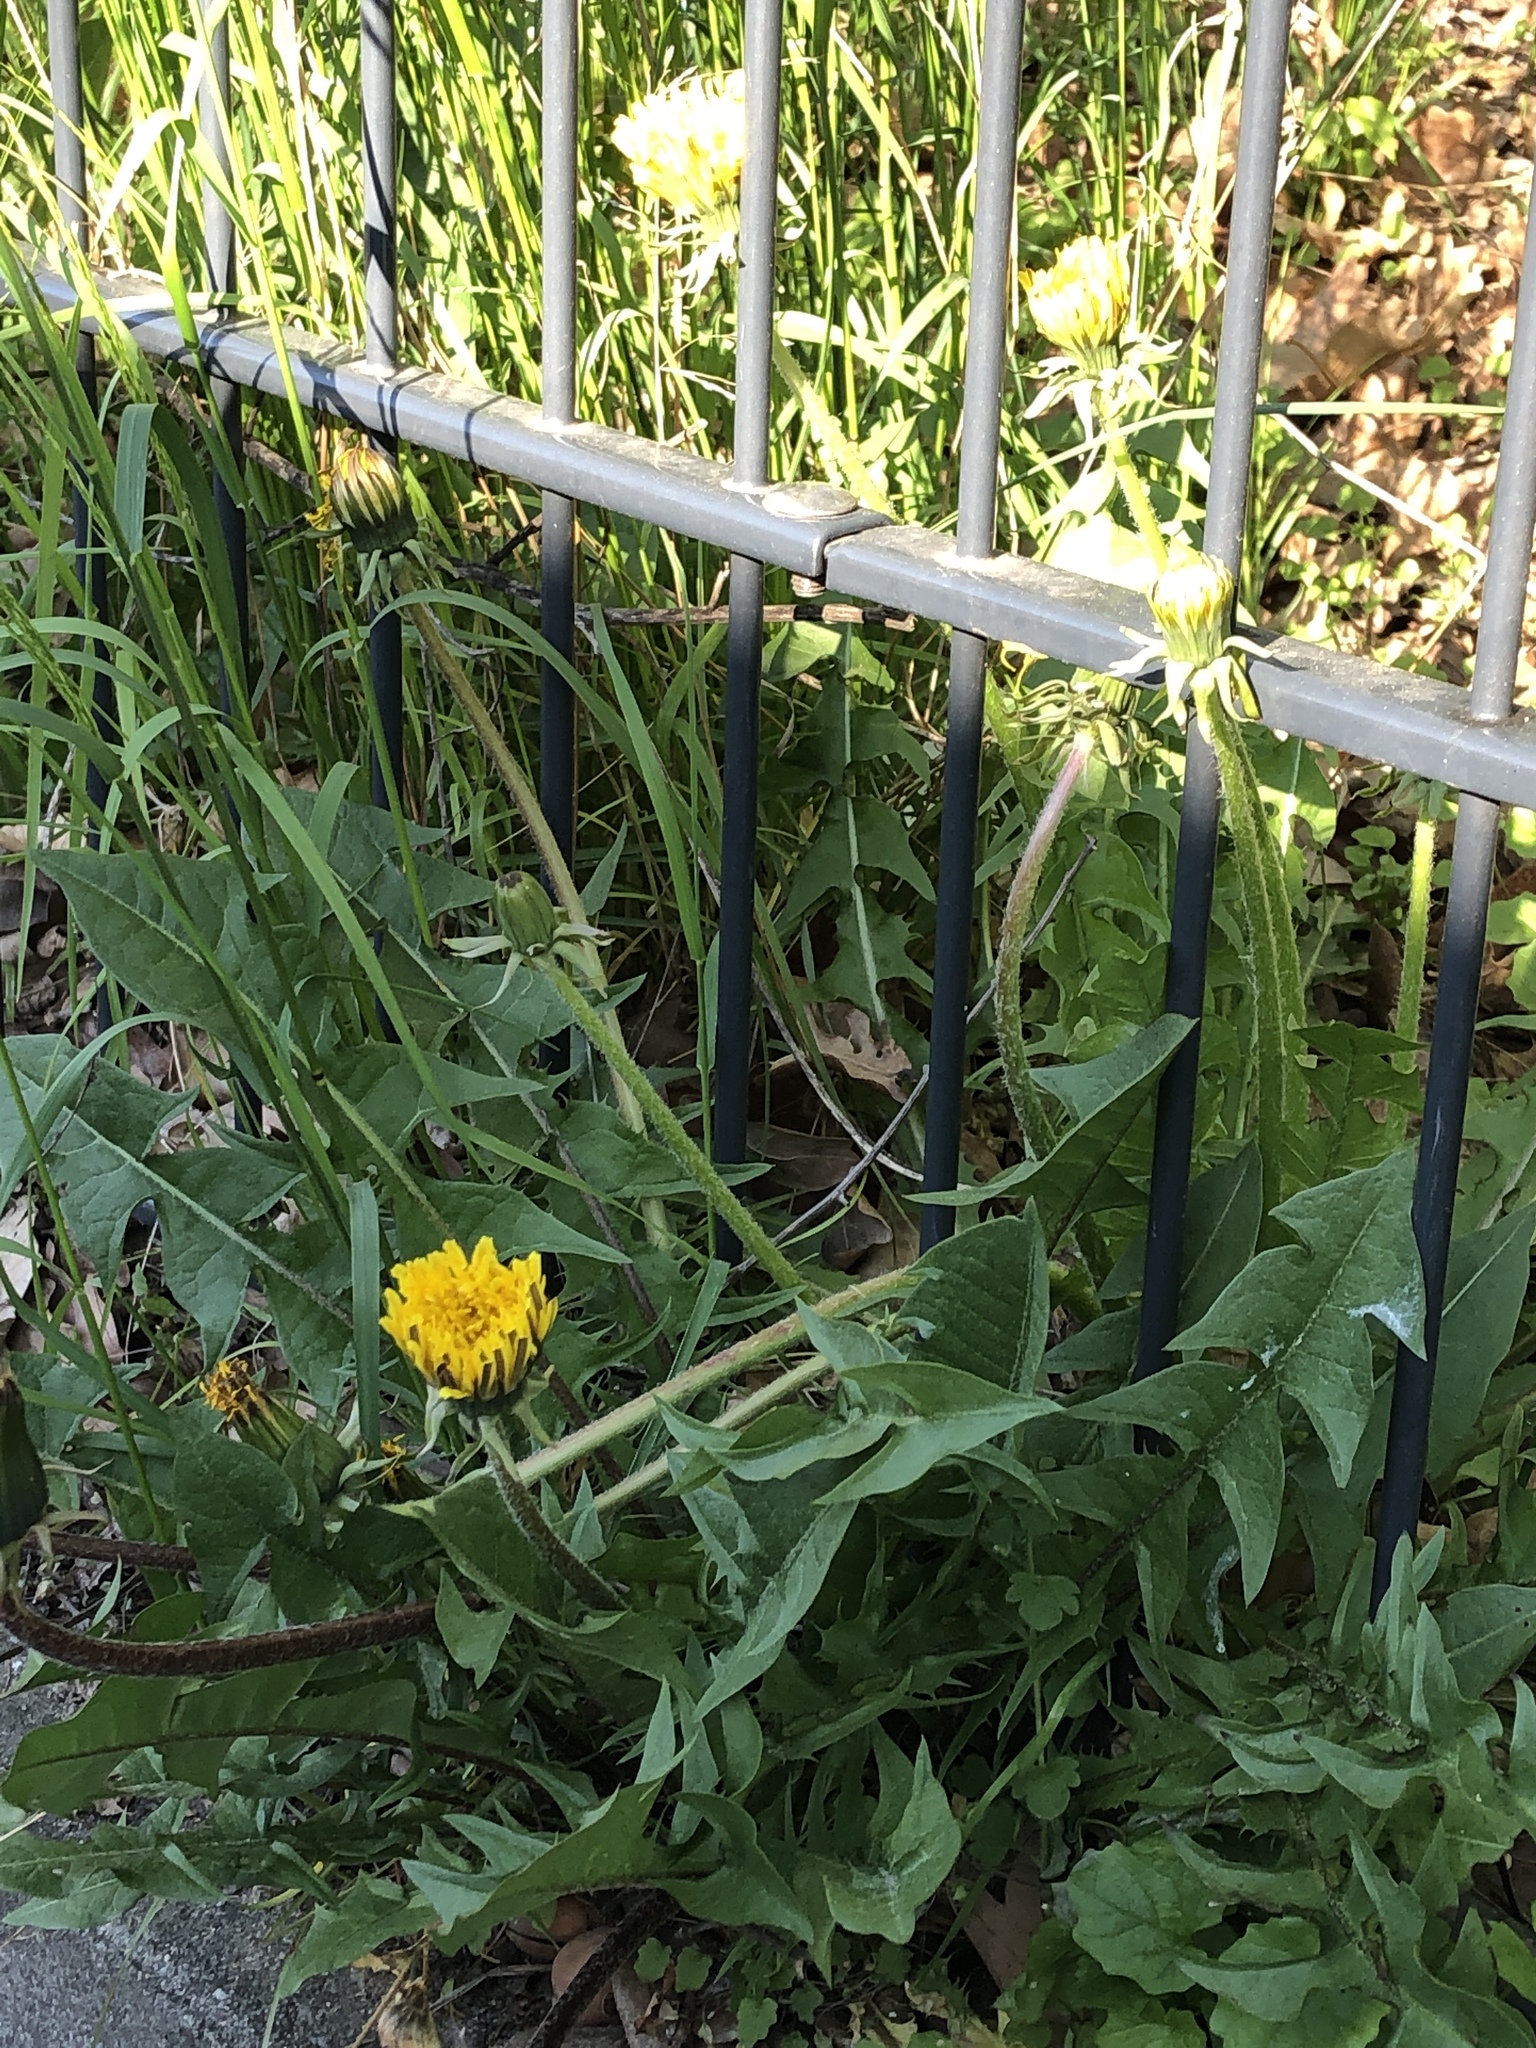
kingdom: Plantae
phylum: Tracheophyta
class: Magnoliopsida
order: Asterales
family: Asteraceae
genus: Taraxacum
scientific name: Taraxacum officinale
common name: Common dandelion
